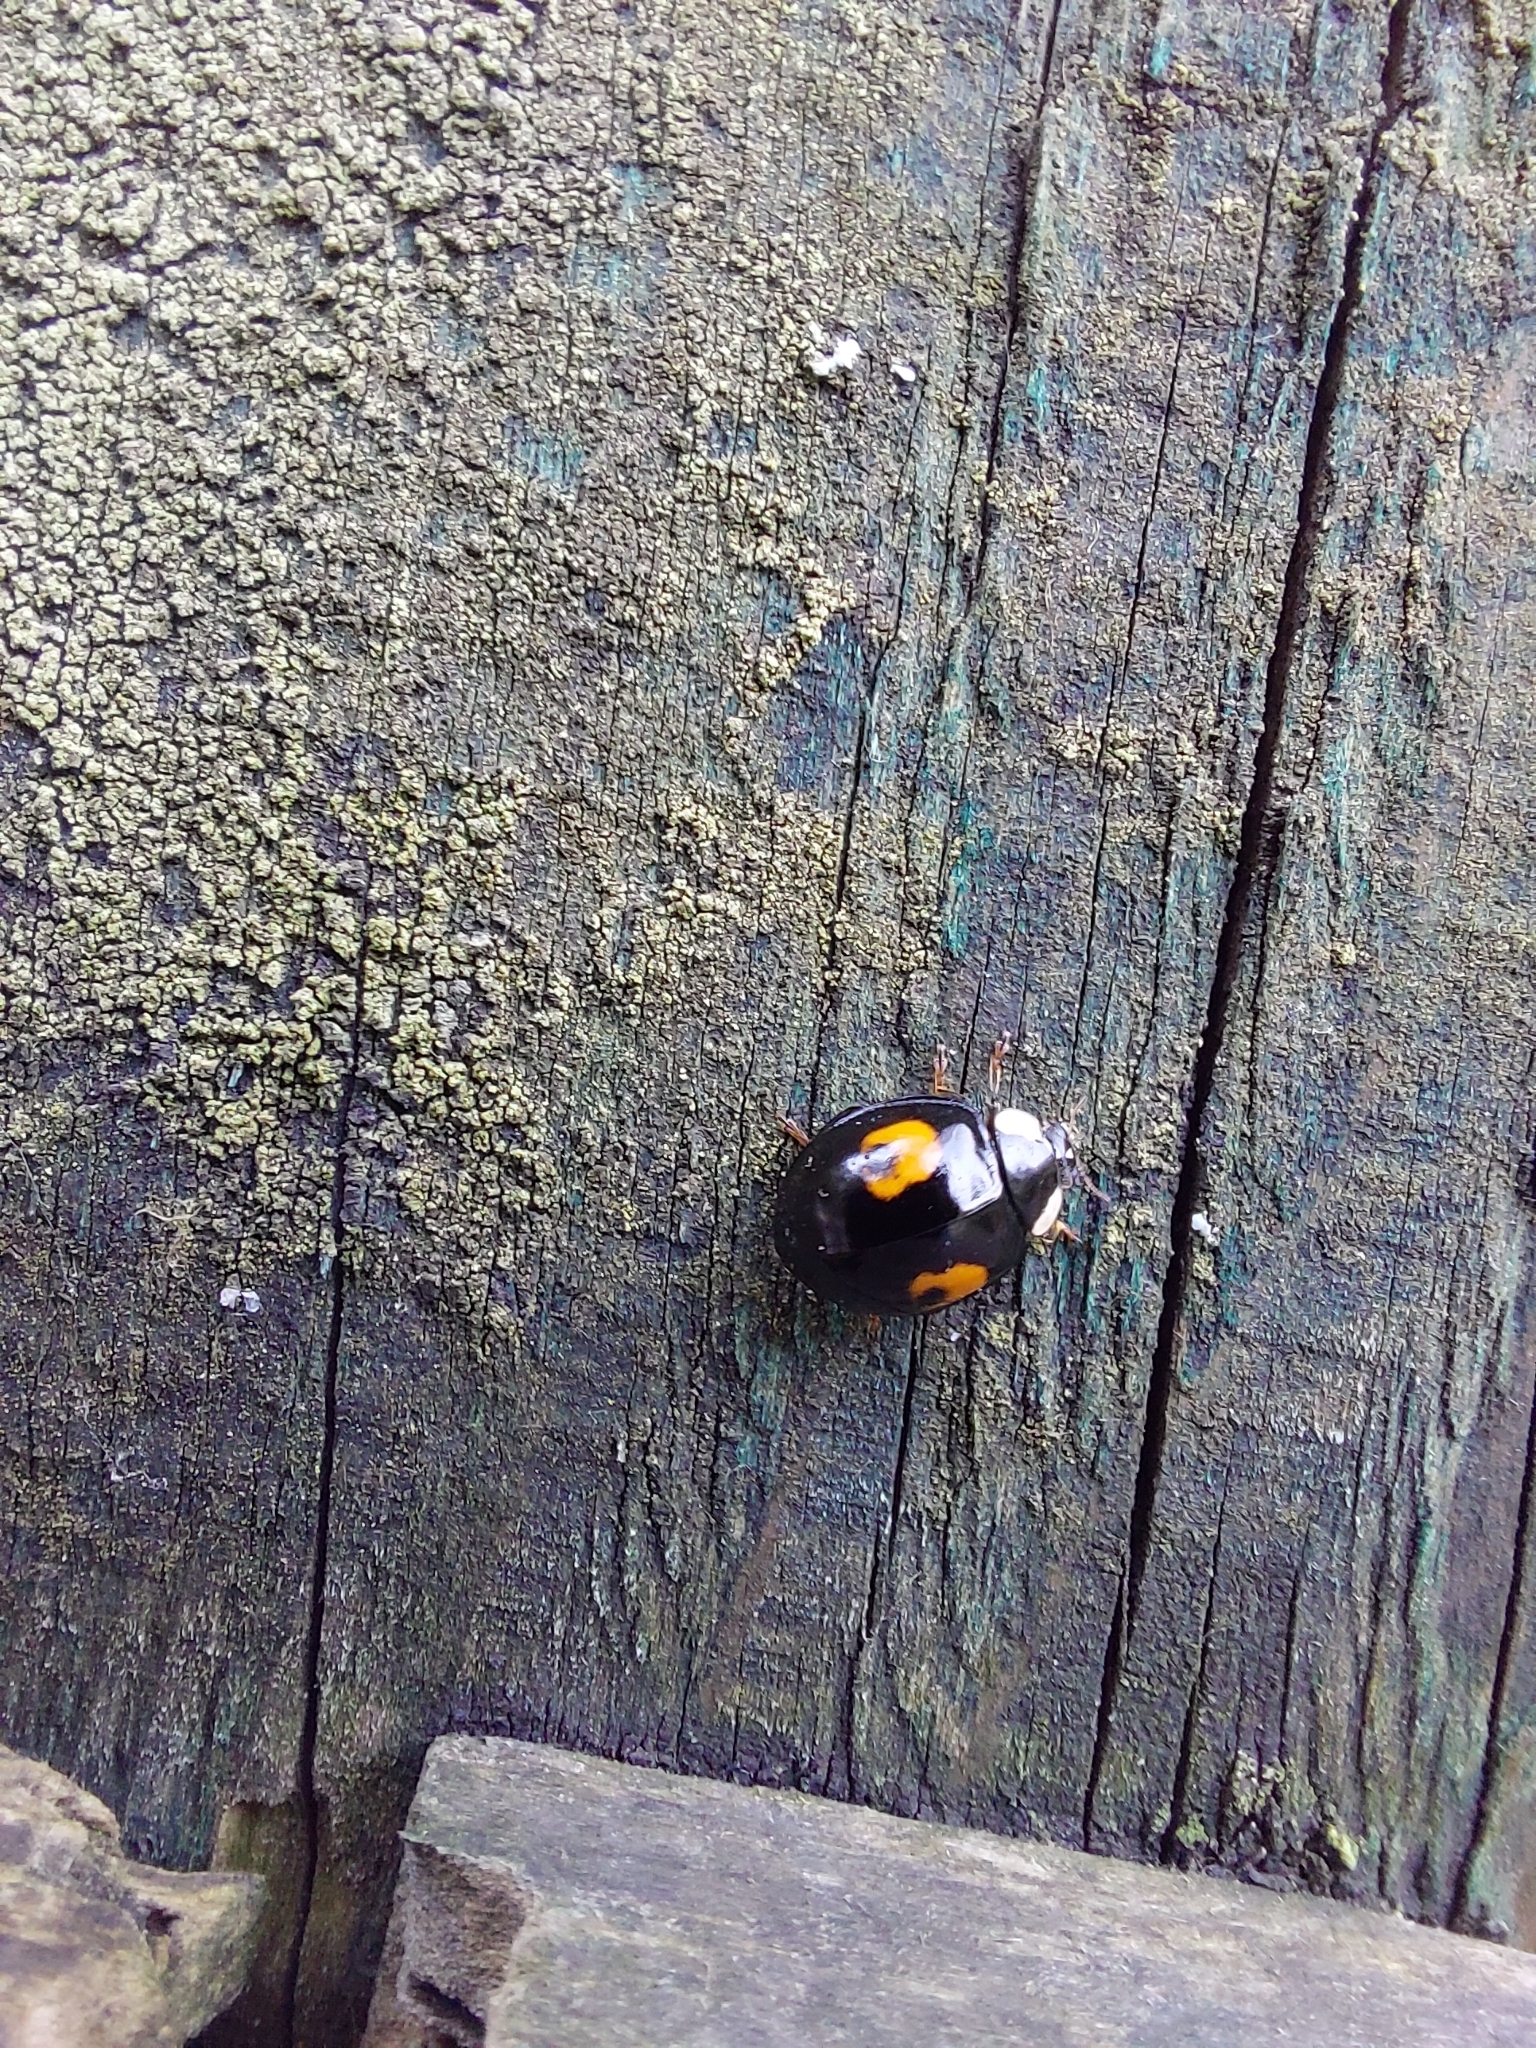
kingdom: Animalia
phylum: Arthropoda
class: Insecta
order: Coleoptera
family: Coccinellidae
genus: Harmonia
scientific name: Harmonia axyridis
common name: Harlequin ladybird
